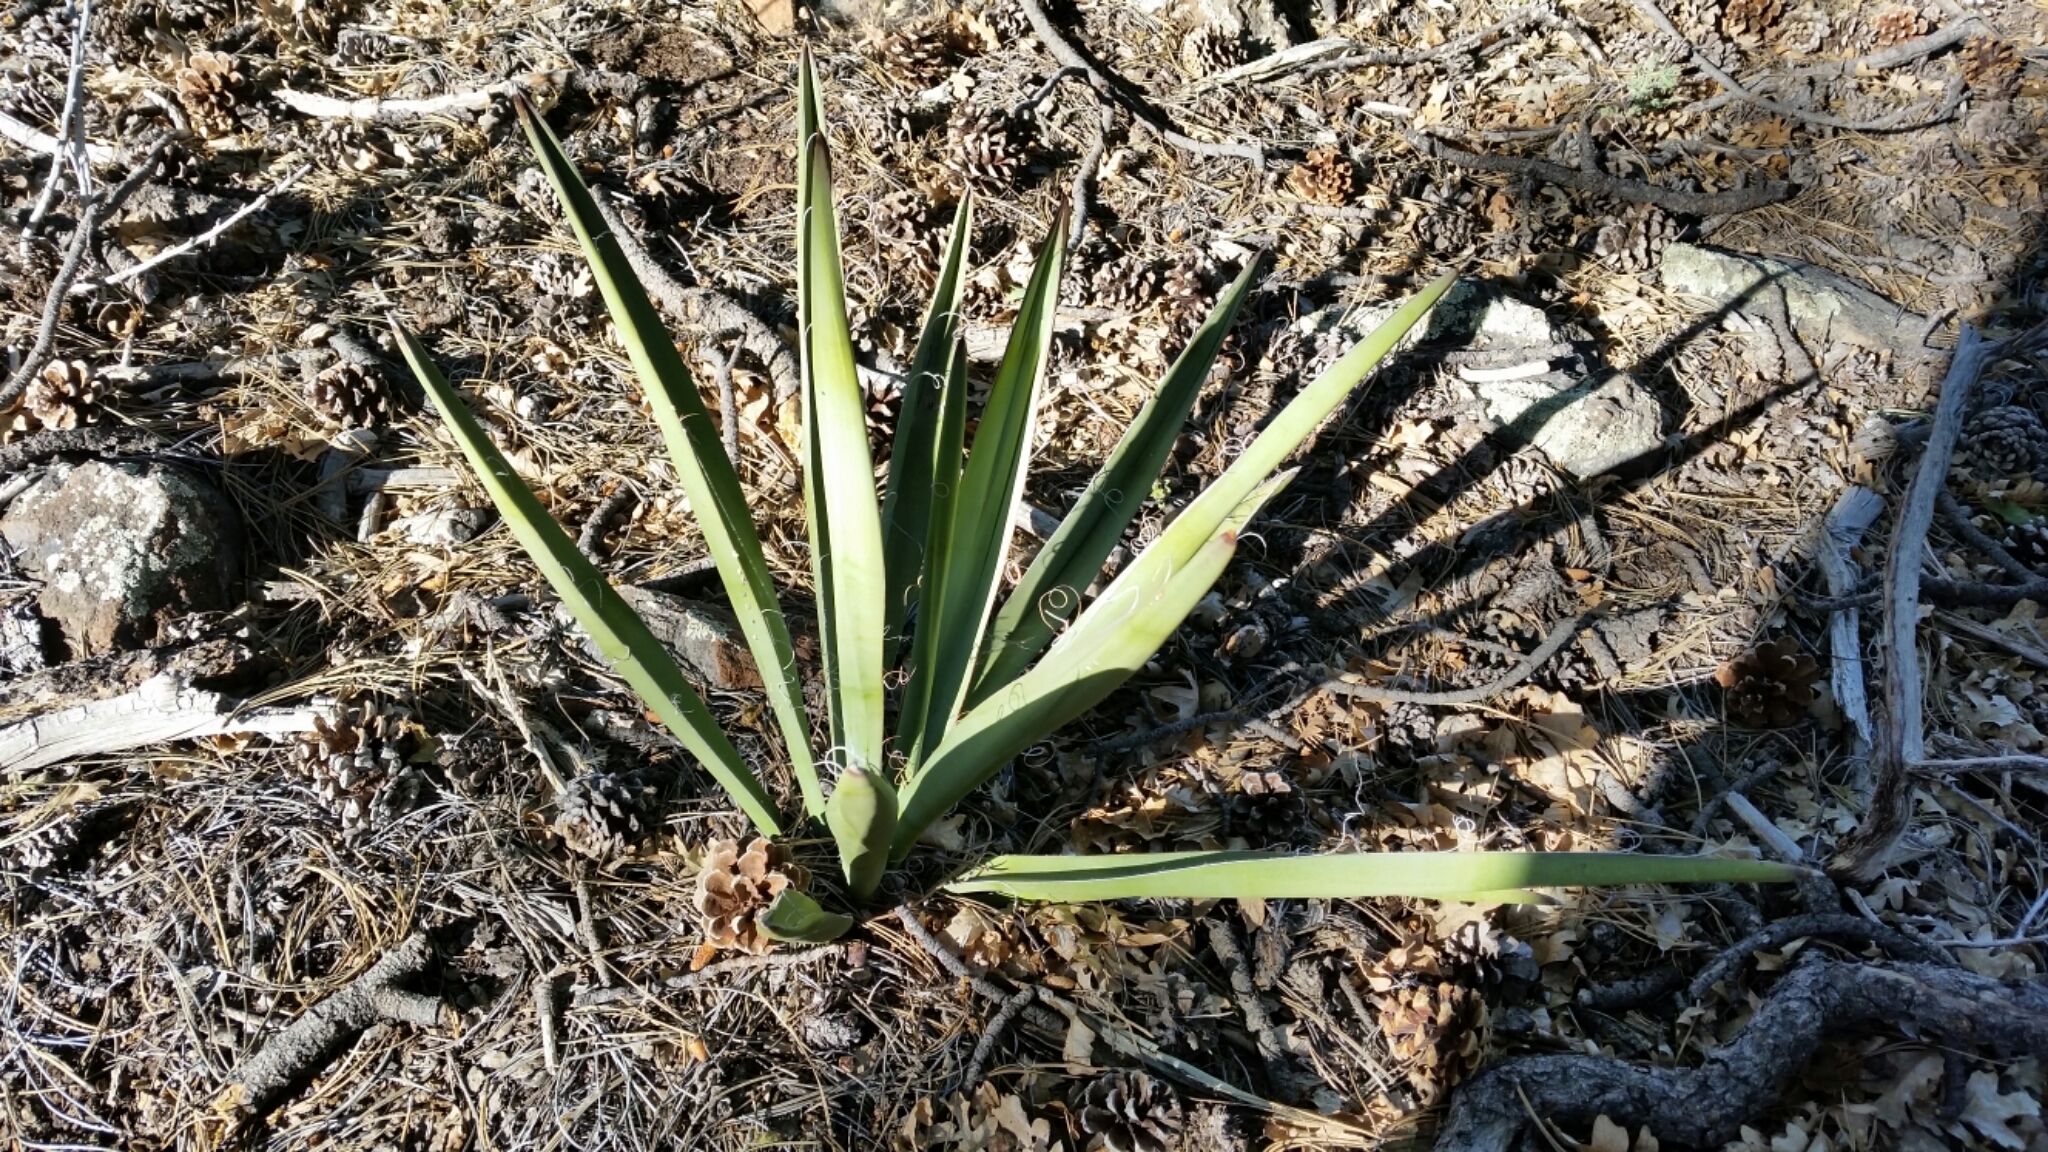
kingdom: Plantae
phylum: Tracheophyta
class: Liliopsida
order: Asparagales
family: Asparagaceae
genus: Yucca
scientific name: Yucca baccata
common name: Banana yucca
